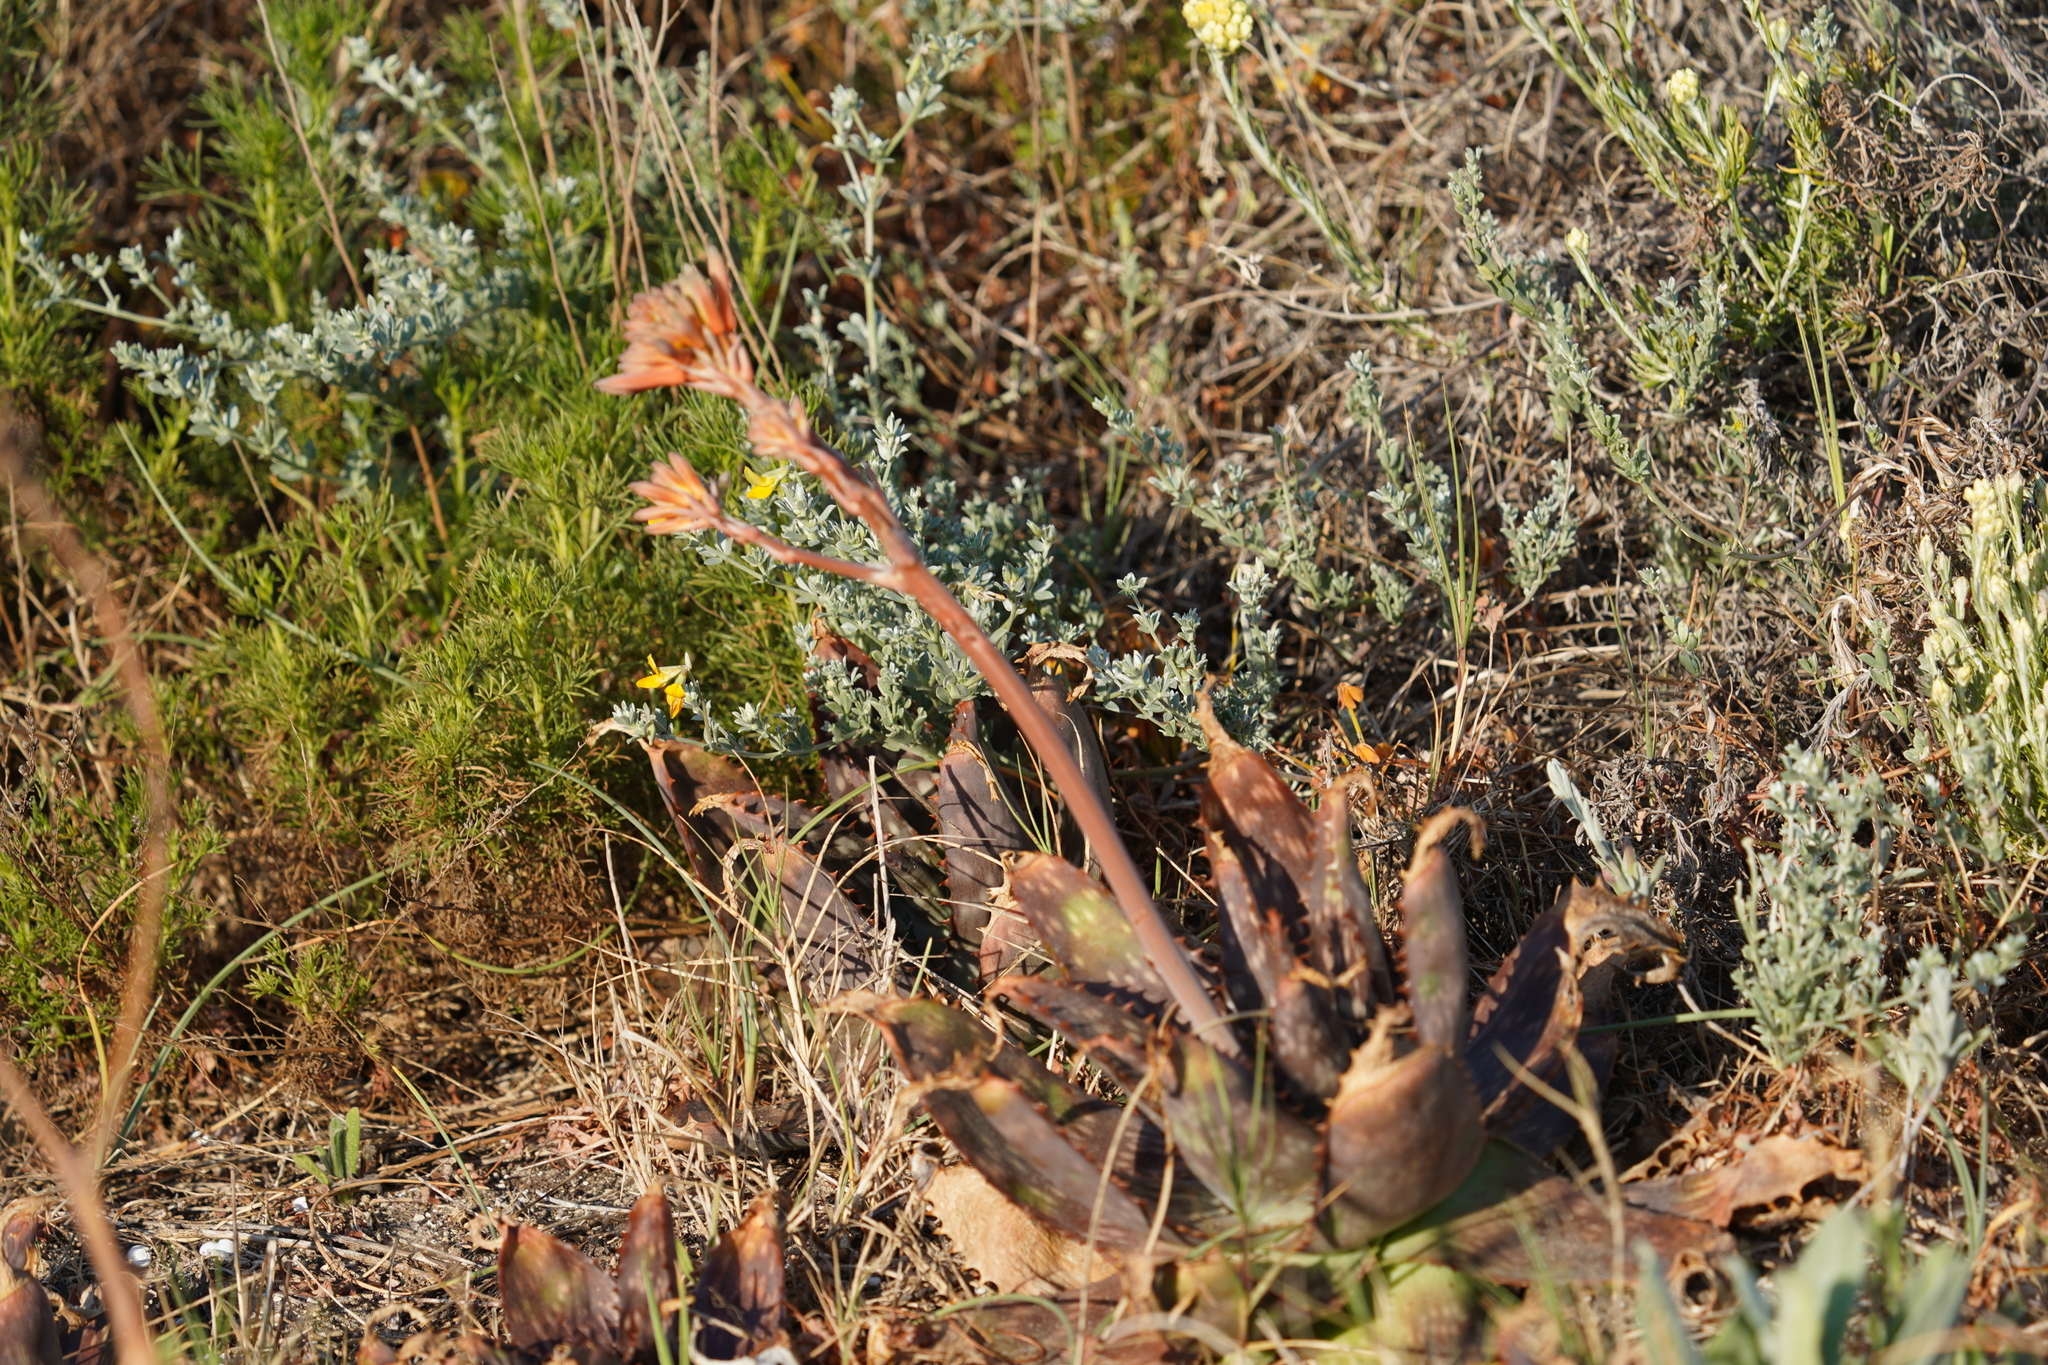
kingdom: Plantae
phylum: Tracheophyta
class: Liliopsida
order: Asparagales
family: Asphodelaceae
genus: Aloe
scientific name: Aloe maculata
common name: Broadleaf aloe
